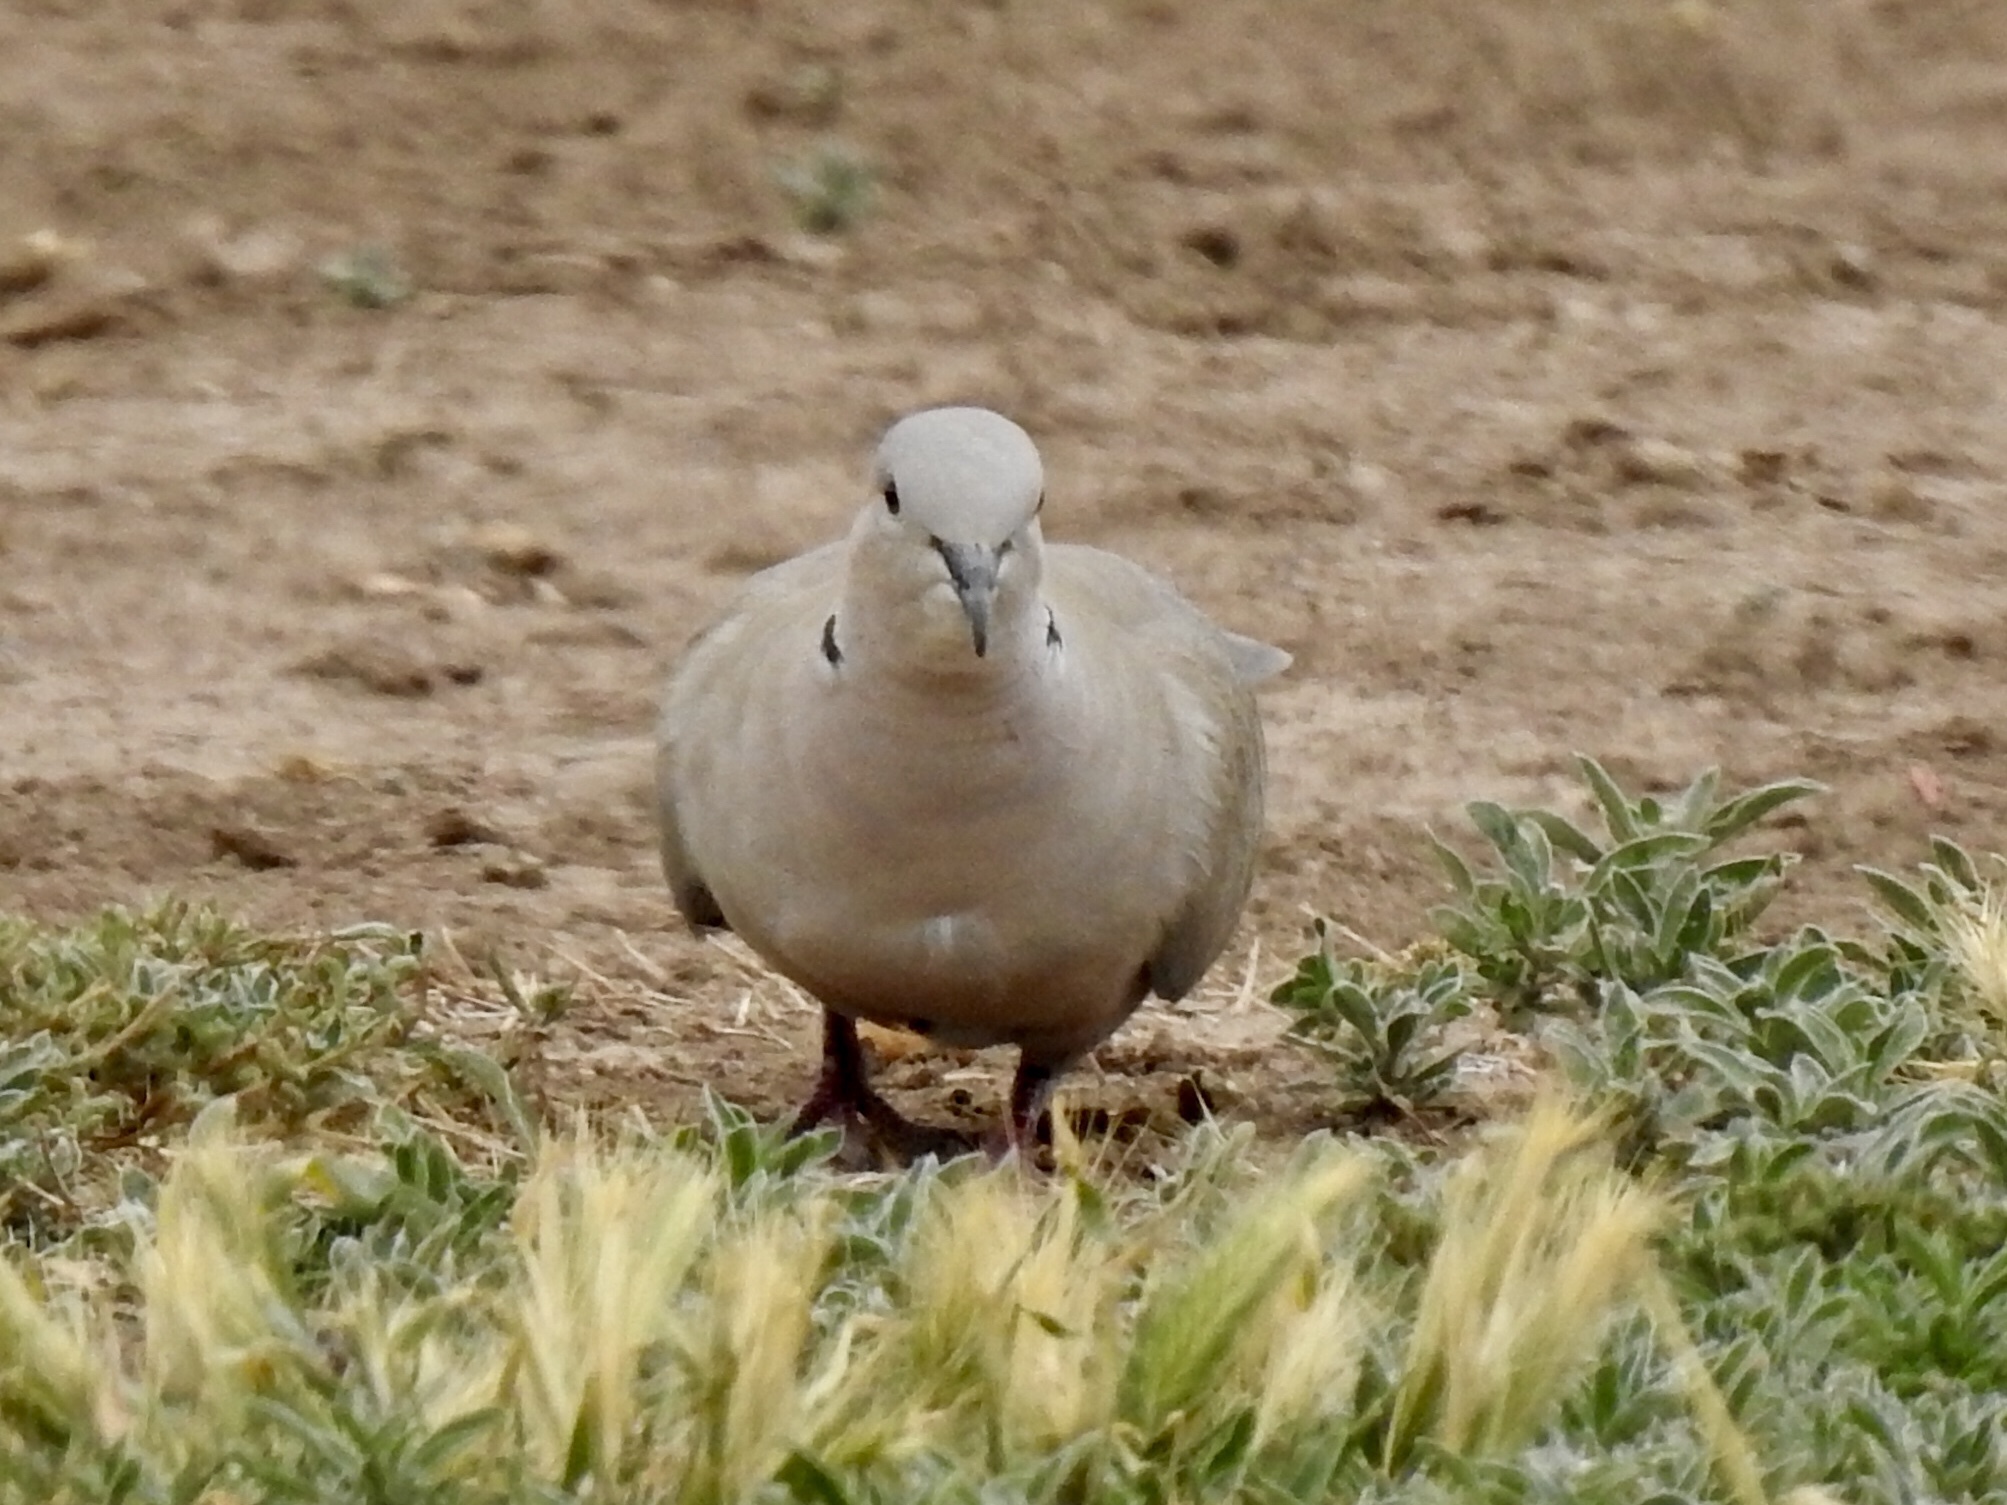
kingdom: Animalia
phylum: Chordata
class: Aves
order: Columbiformes
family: Columbidae
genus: Streptopelia
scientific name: Streptopelia decaocto
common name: Eurasian collared dove
